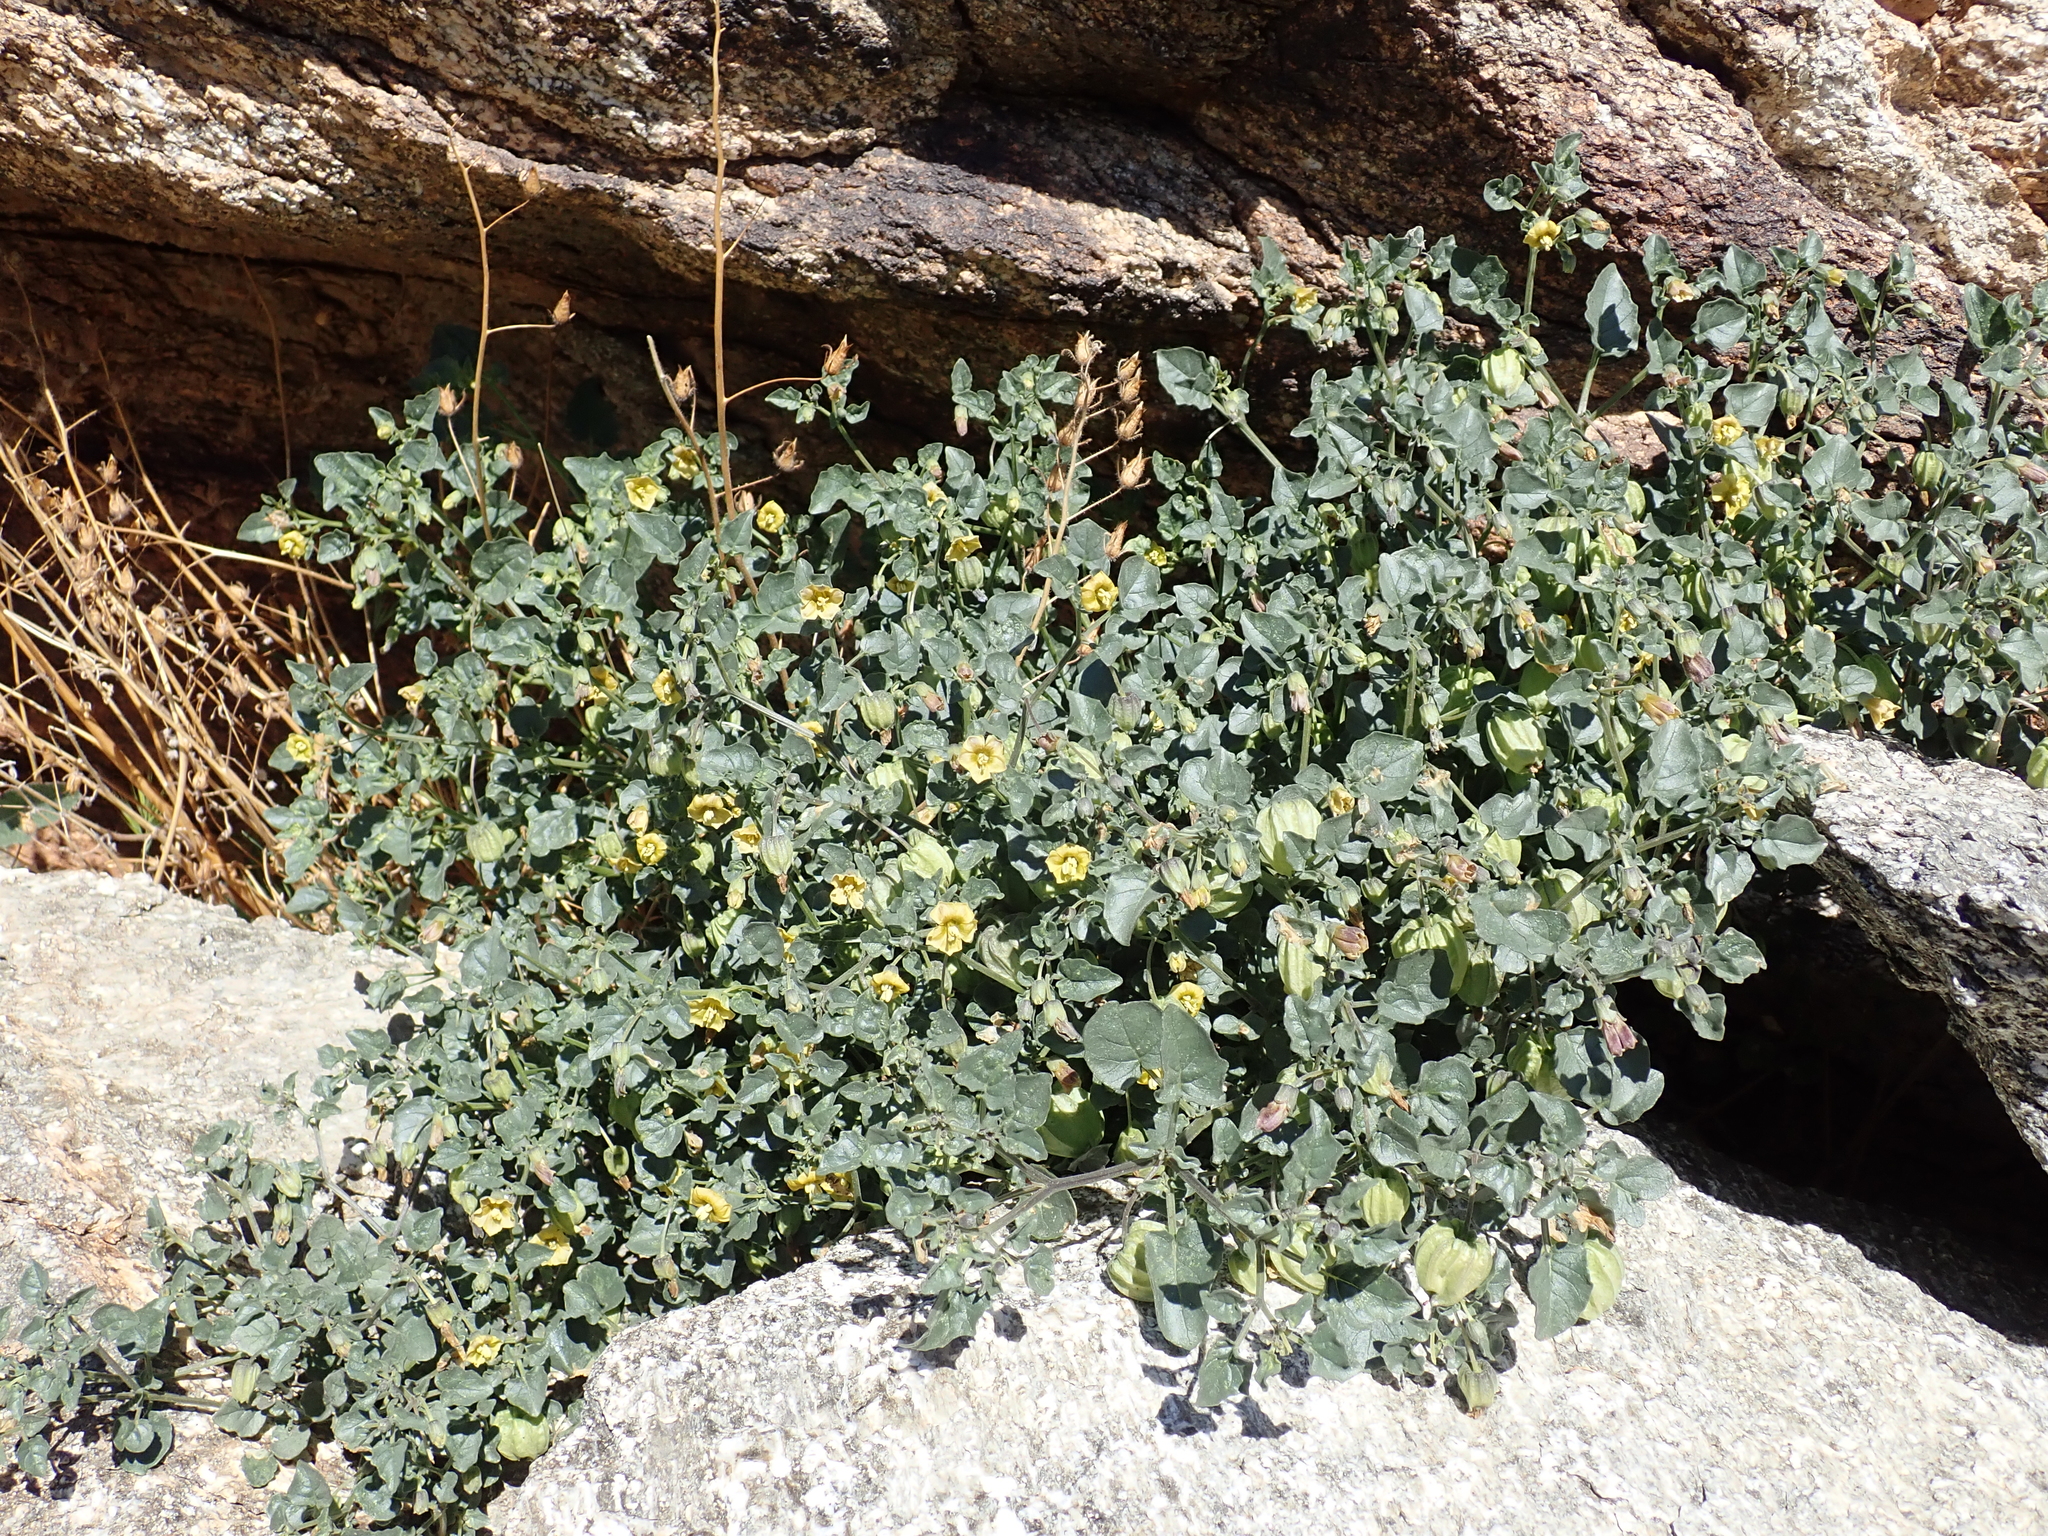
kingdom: Plantae
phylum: Tracheophyta
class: Magnoliopsida
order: Solanales
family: Solanaceae
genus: Physalis
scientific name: Physalis crassifolia
